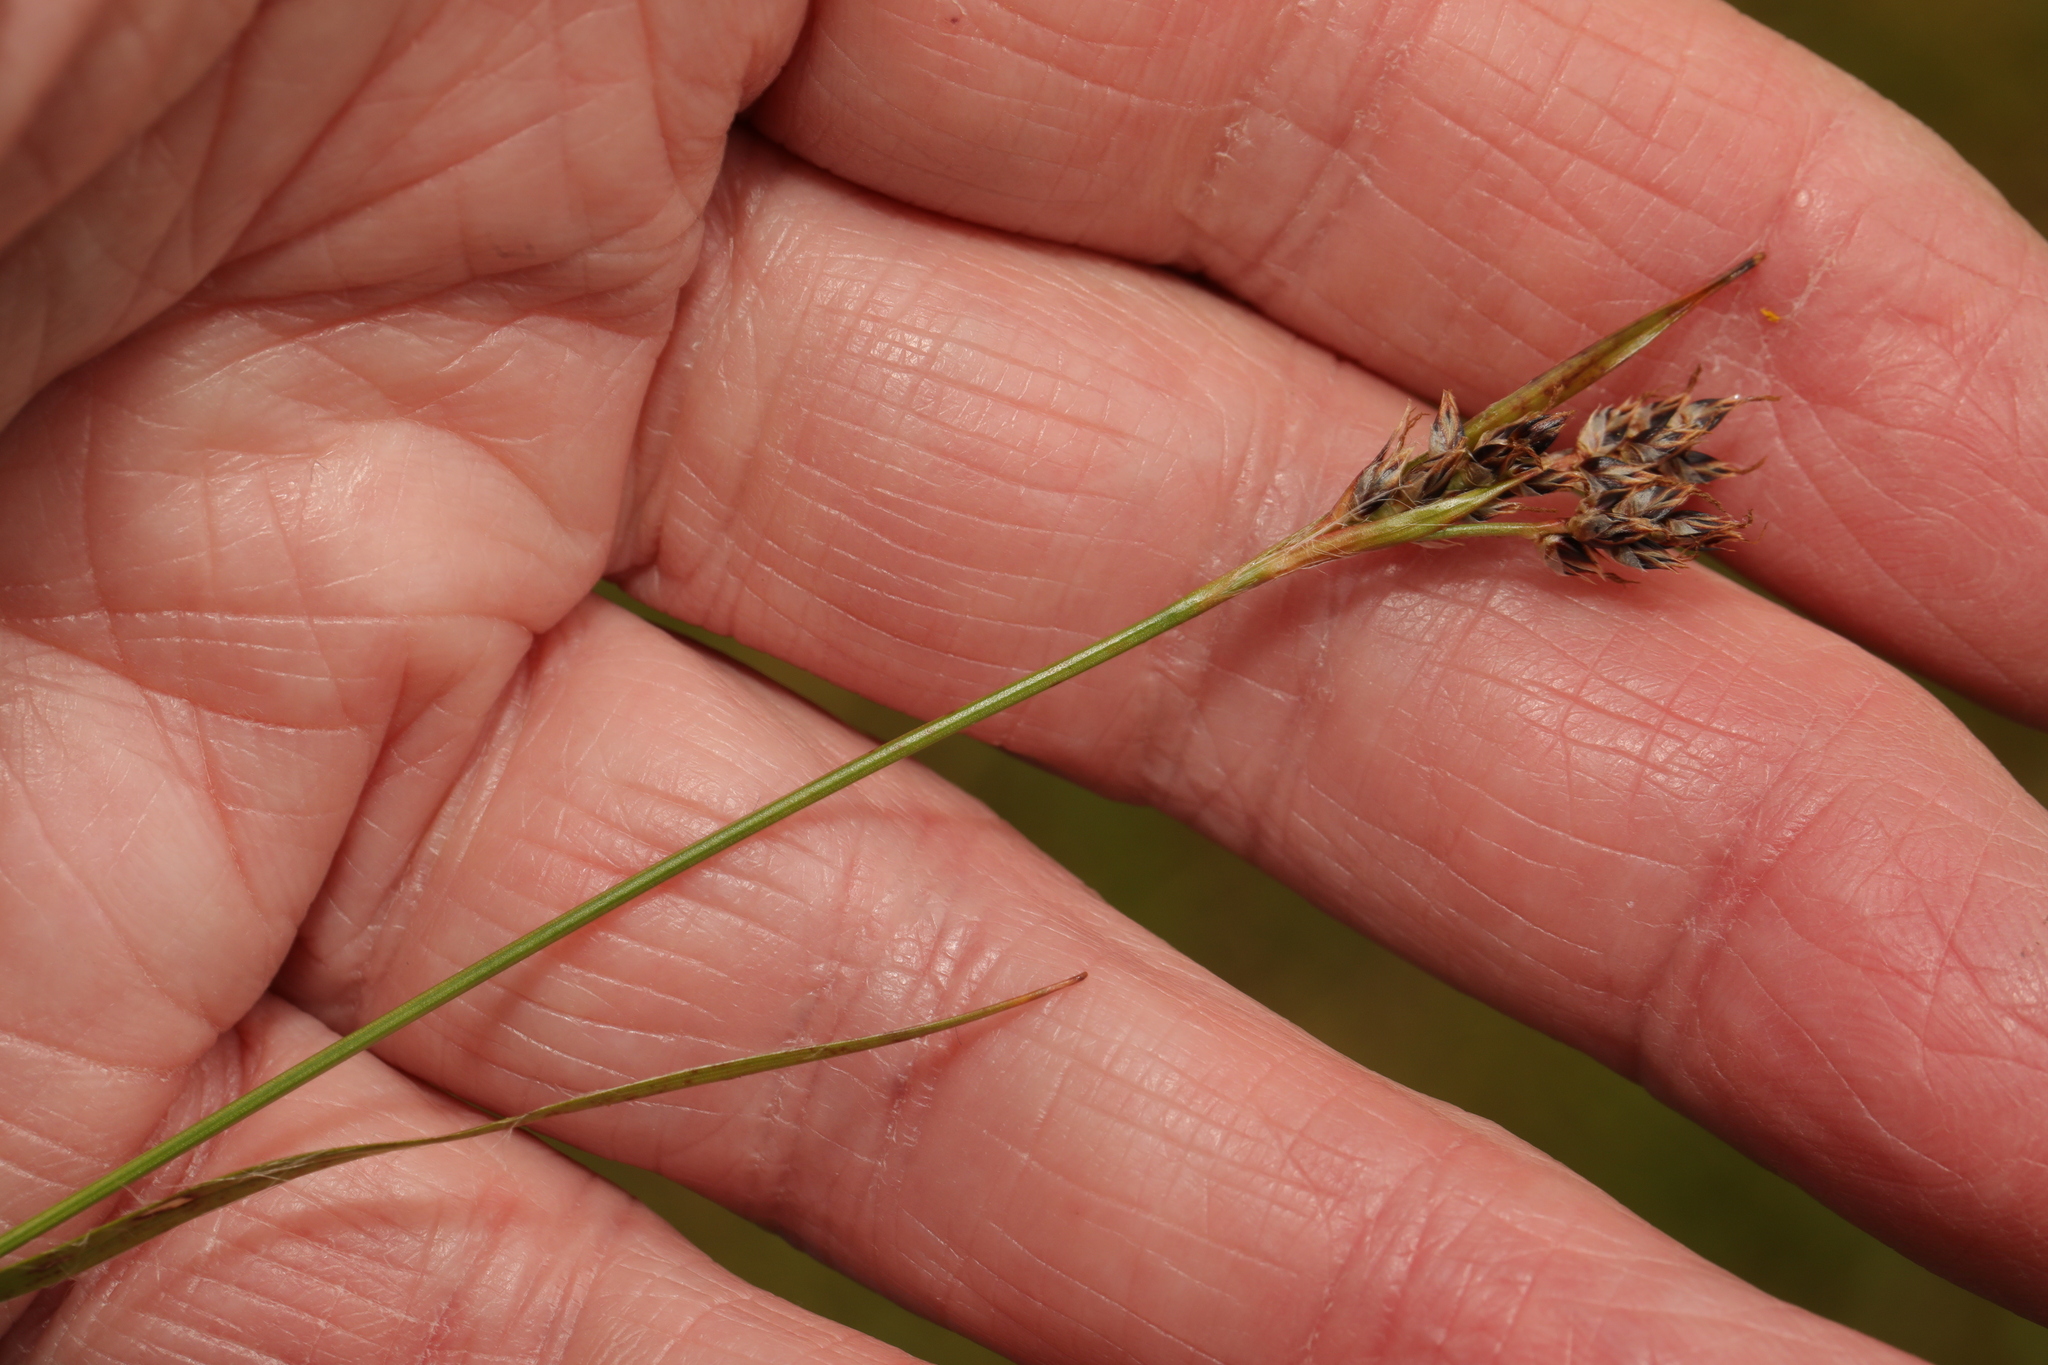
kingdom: Plantae
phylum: Tracheophyta
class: Liliopsida
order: Poales
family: Juncaceae
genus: Luzula
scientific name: Luzula campestris
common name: Field wood-rush
